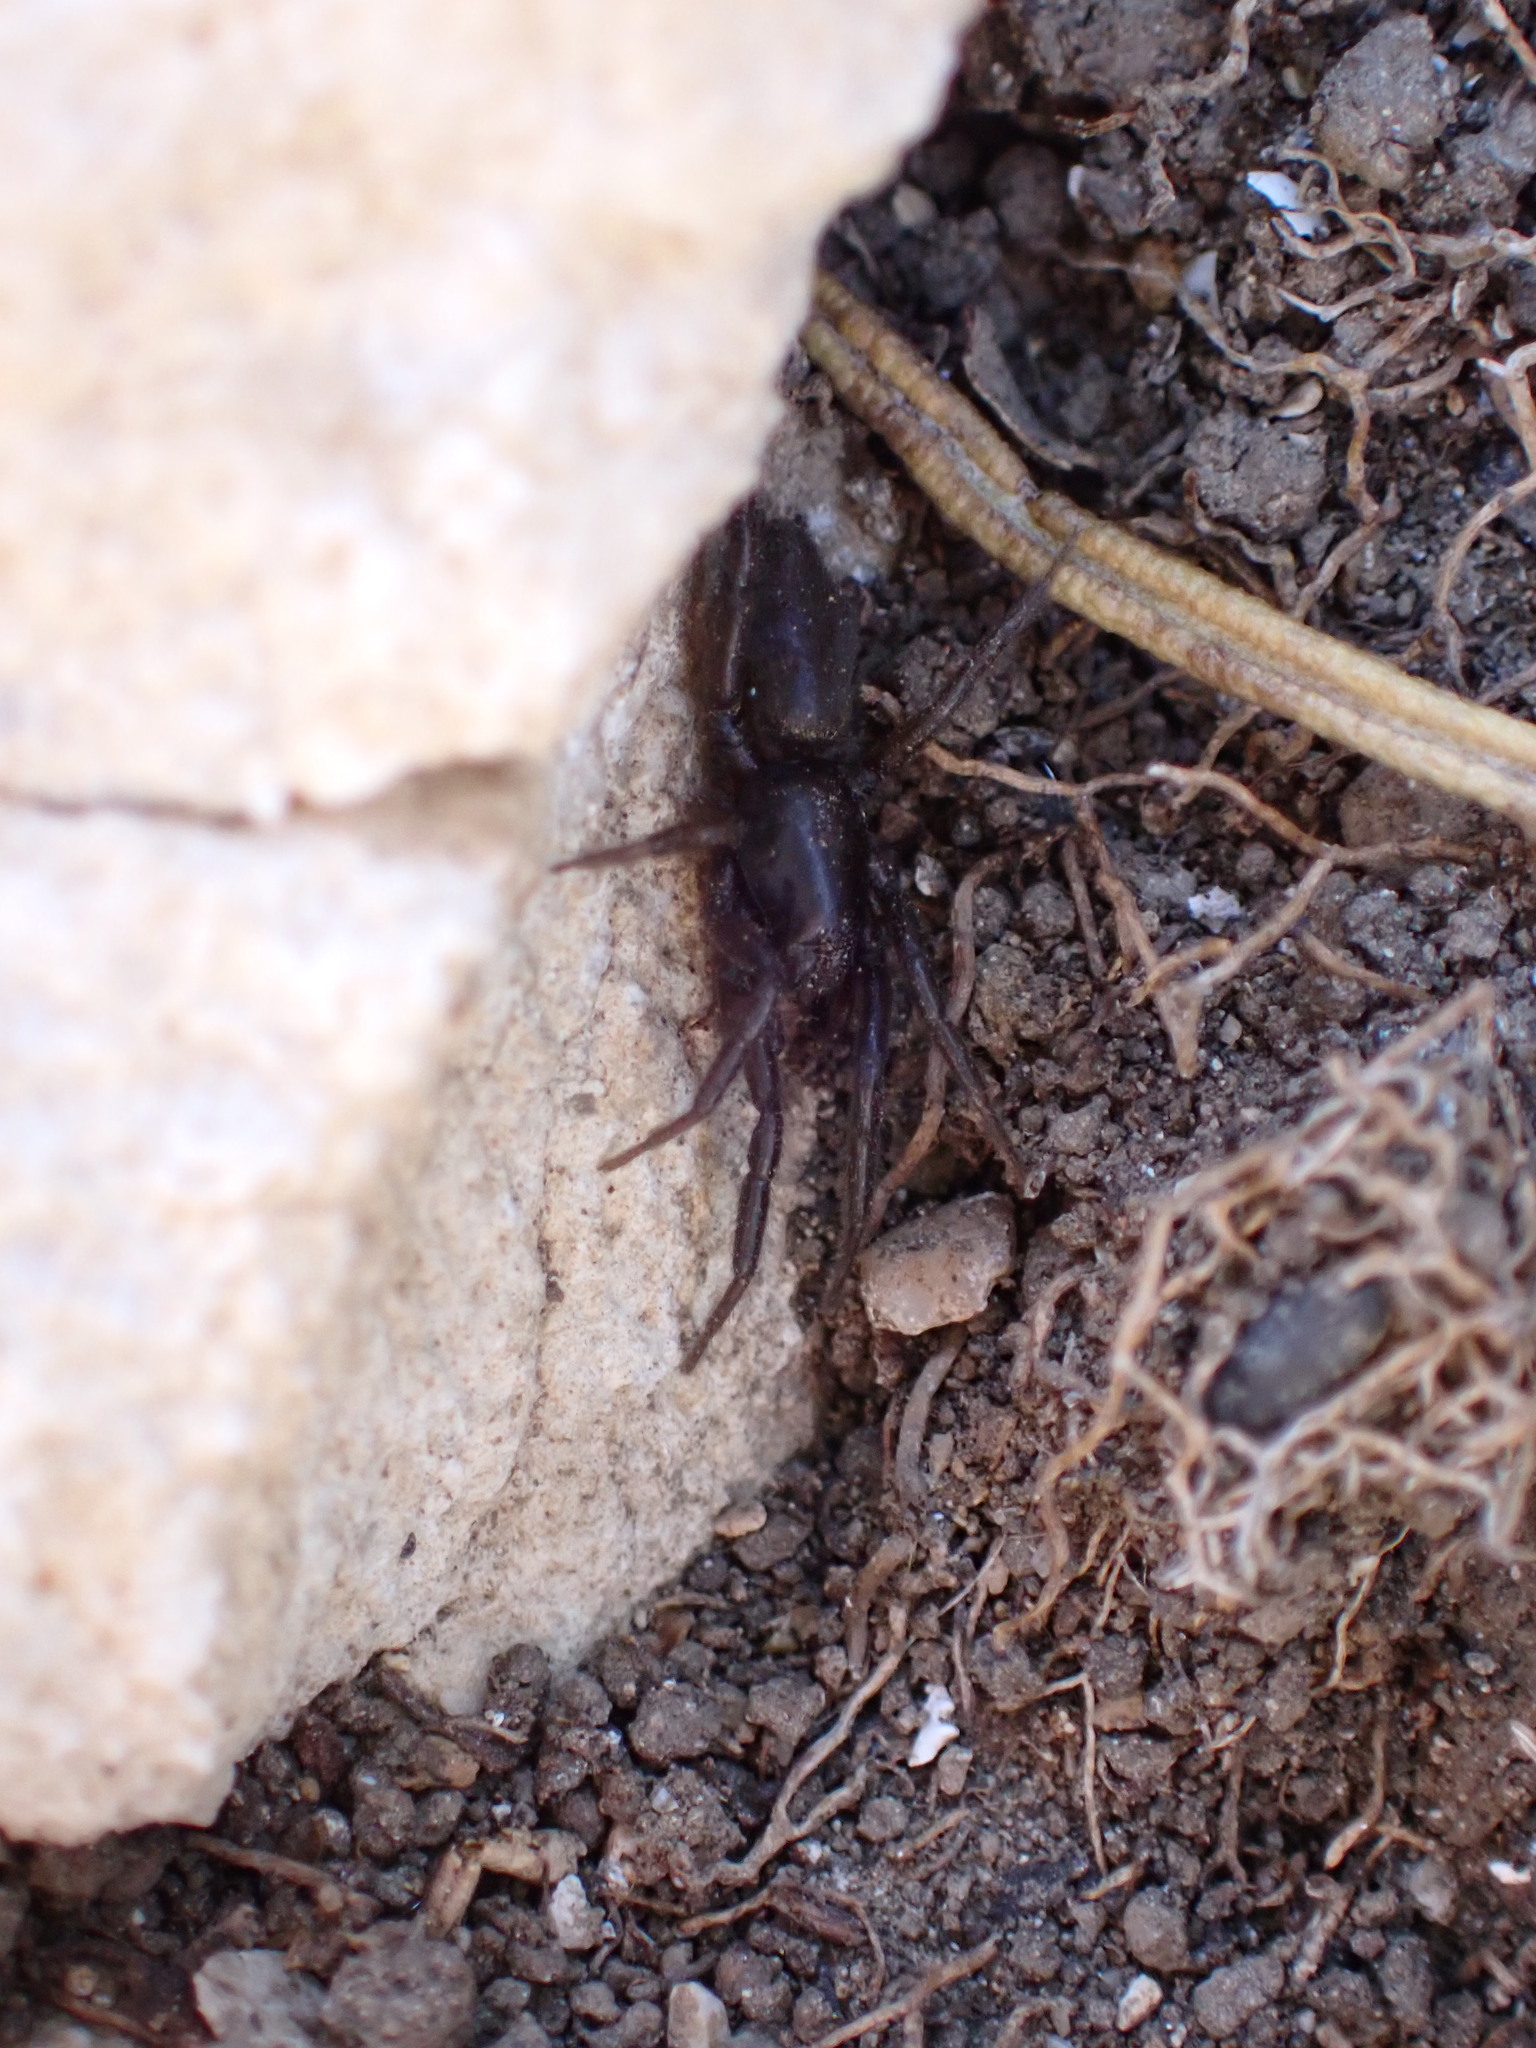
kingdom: Animalia
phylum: Arthropoda
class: Arachnida
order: Araneae
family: Segestriidae
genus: Segestria
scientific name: Segestria florentina
